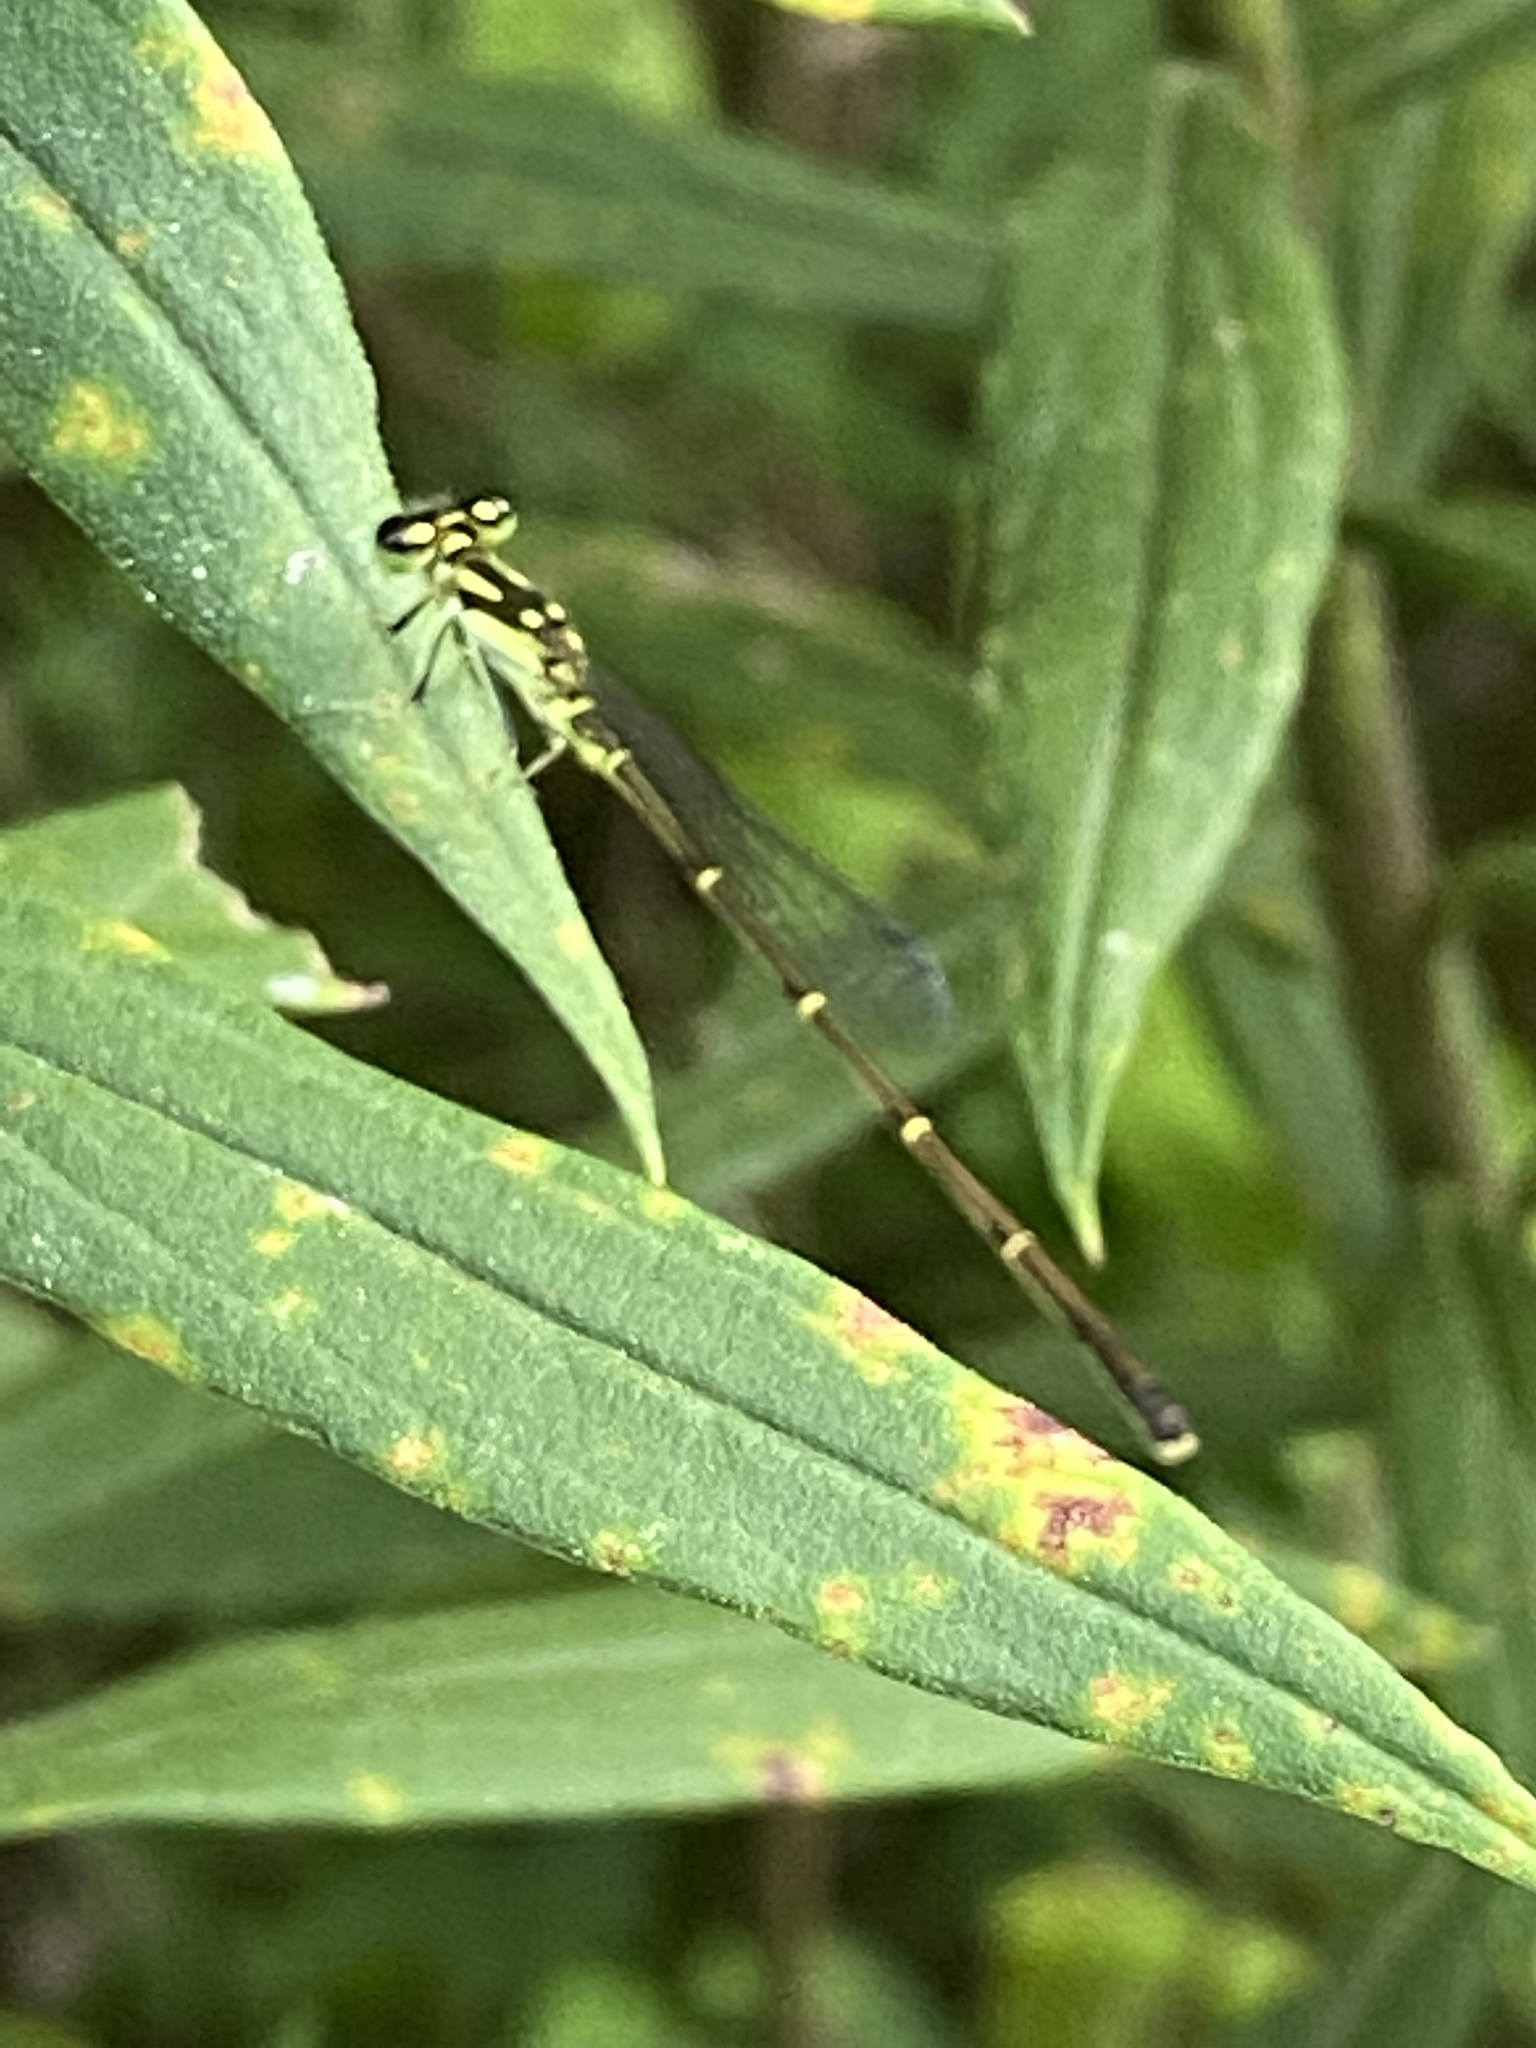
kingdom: Animalia
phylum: Arthropoda
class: Insecta
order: Odonata
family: Coenagrionidae
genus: Ischnura
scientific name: Ischnura posita
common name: Fragile forktail
